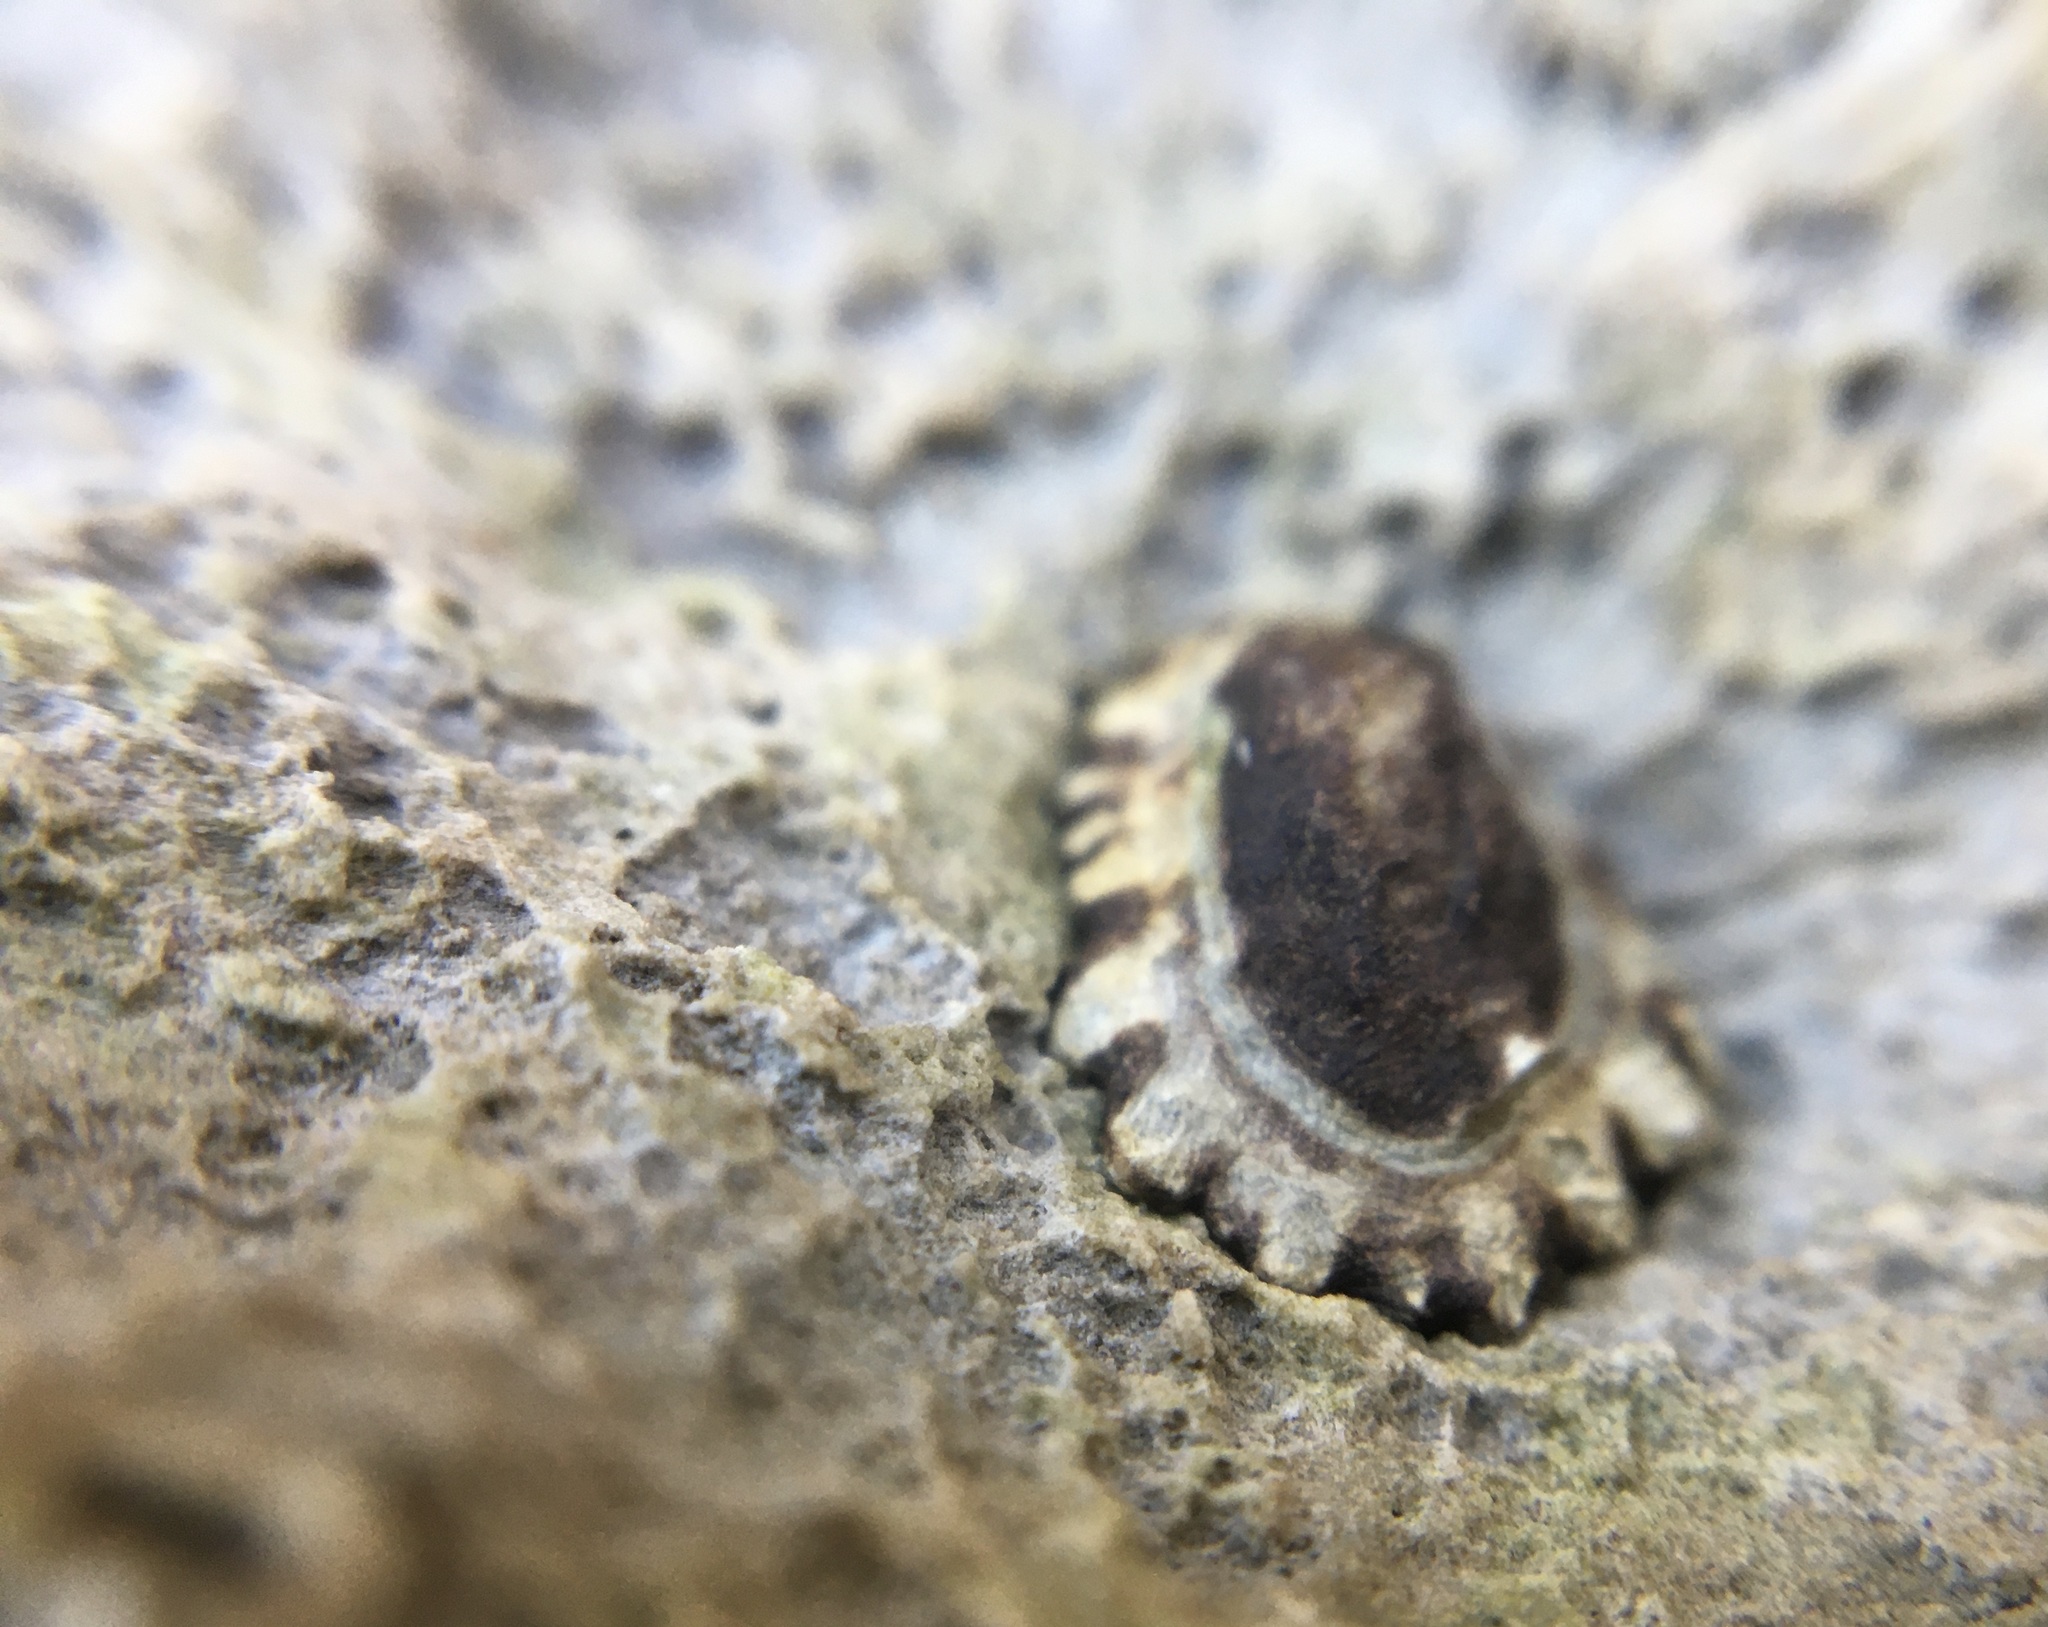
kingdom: Animalia
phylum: Mollusca
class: Gastropoda
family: Lottiidae
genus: Lottia
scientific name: Lottia scabra
